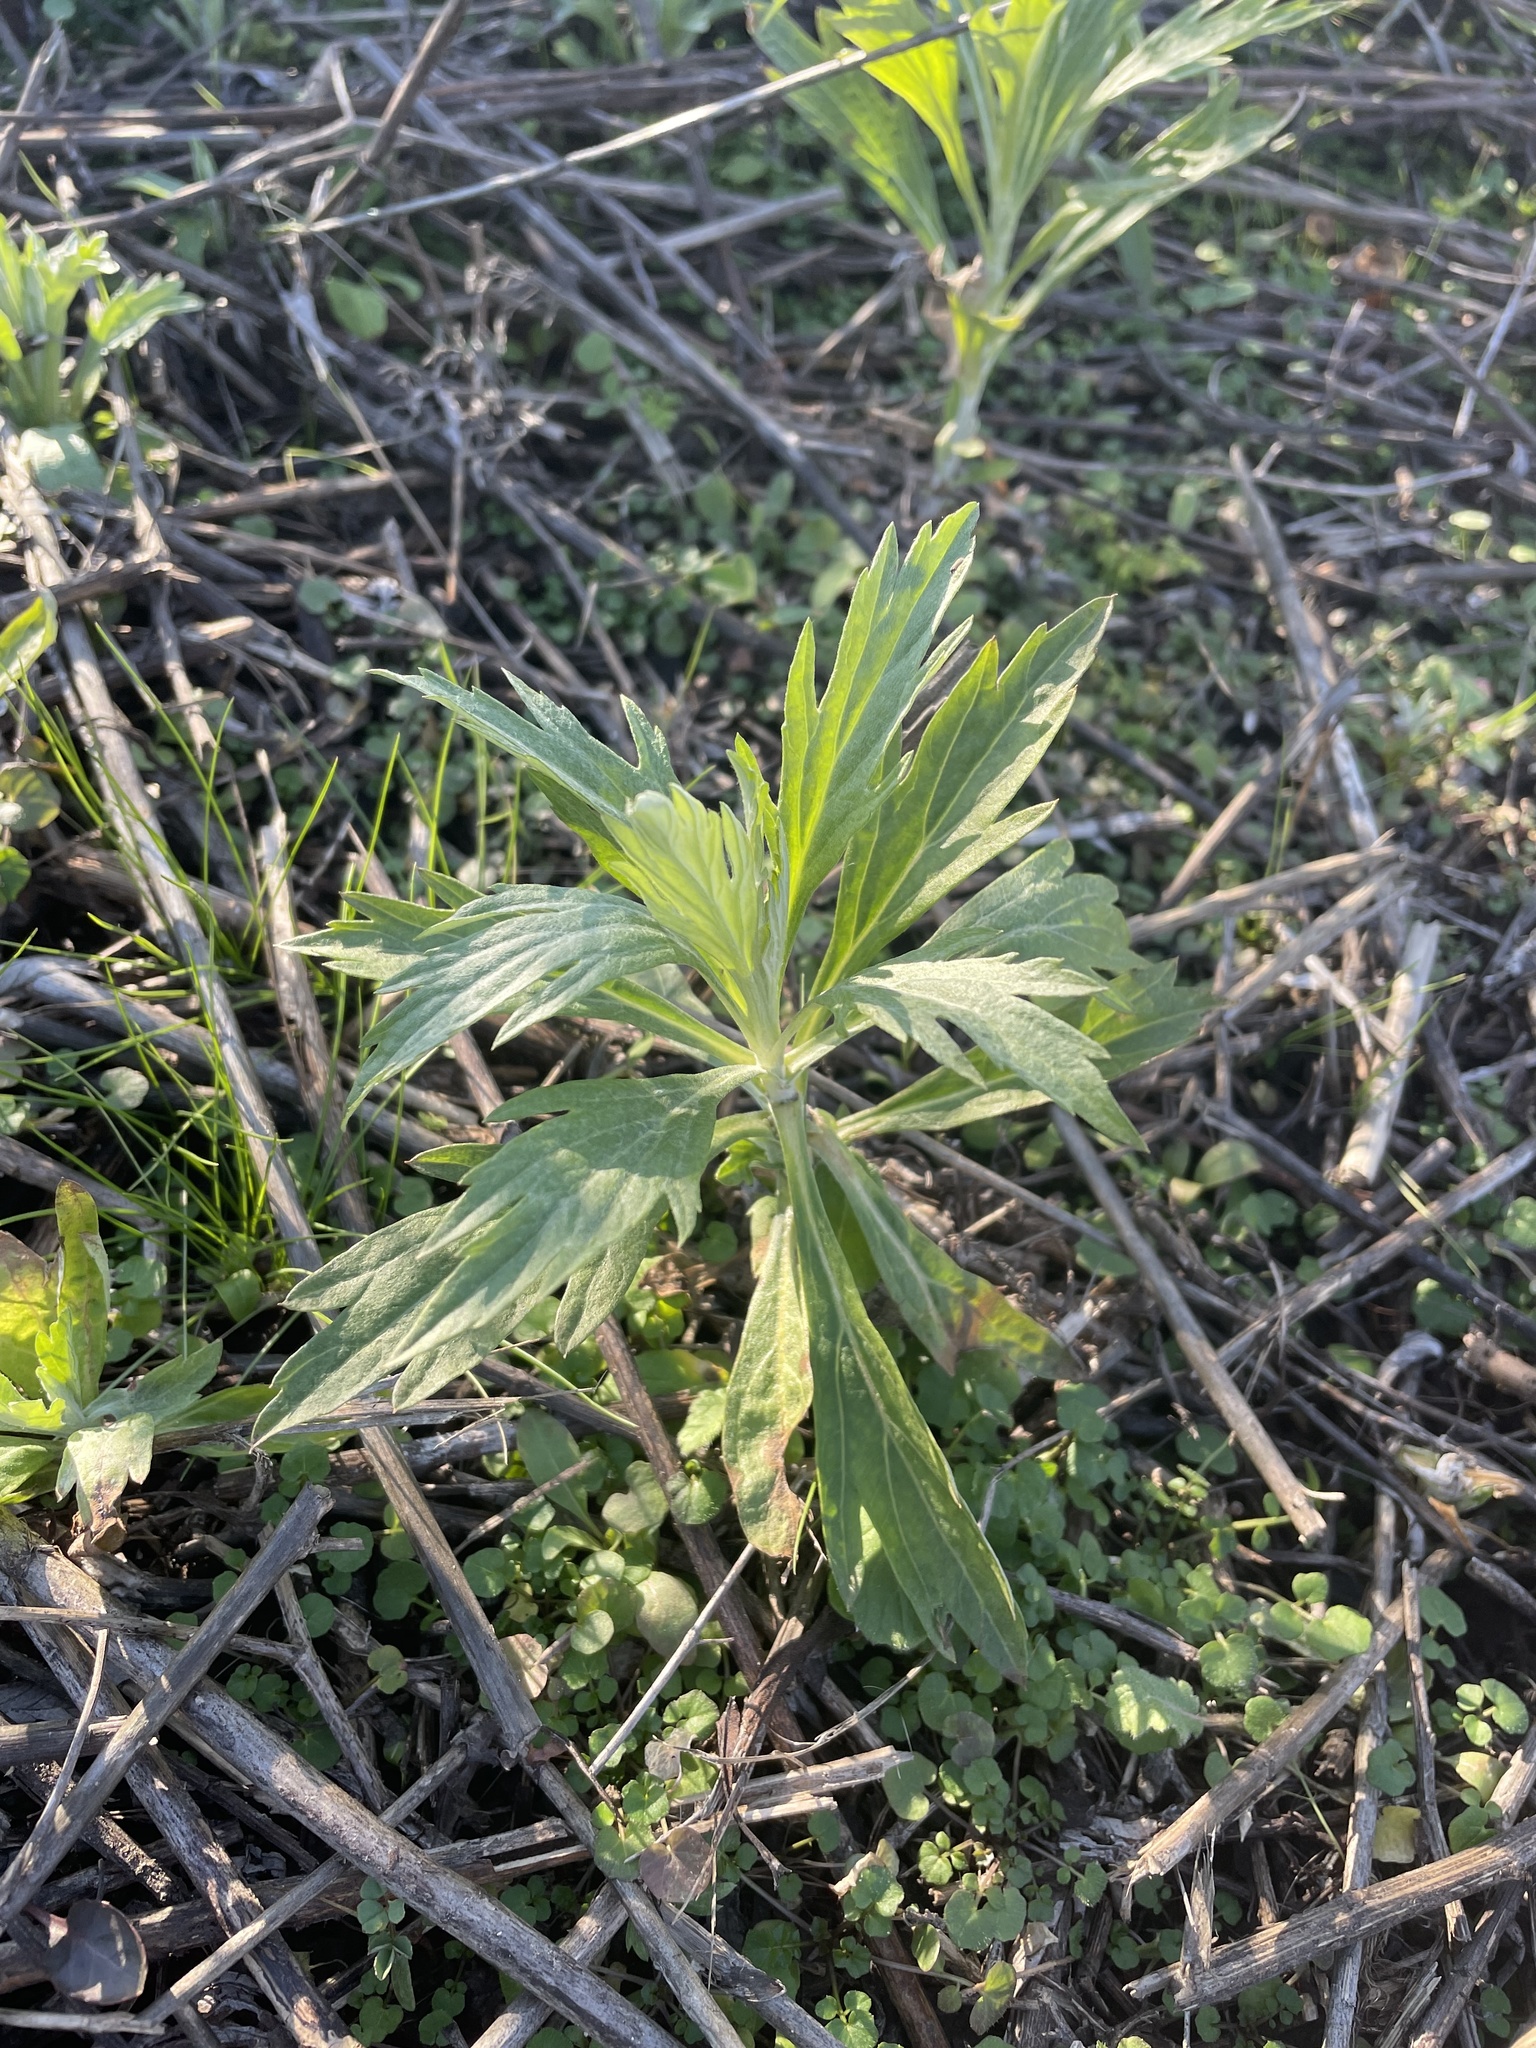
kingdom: Plantae
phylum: Tracheophyta
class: Magnoliopsida
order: Asterales
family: Asteraceae
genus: Artemisia
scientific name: Artemisia douglasiana
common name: Northwest mugwort
